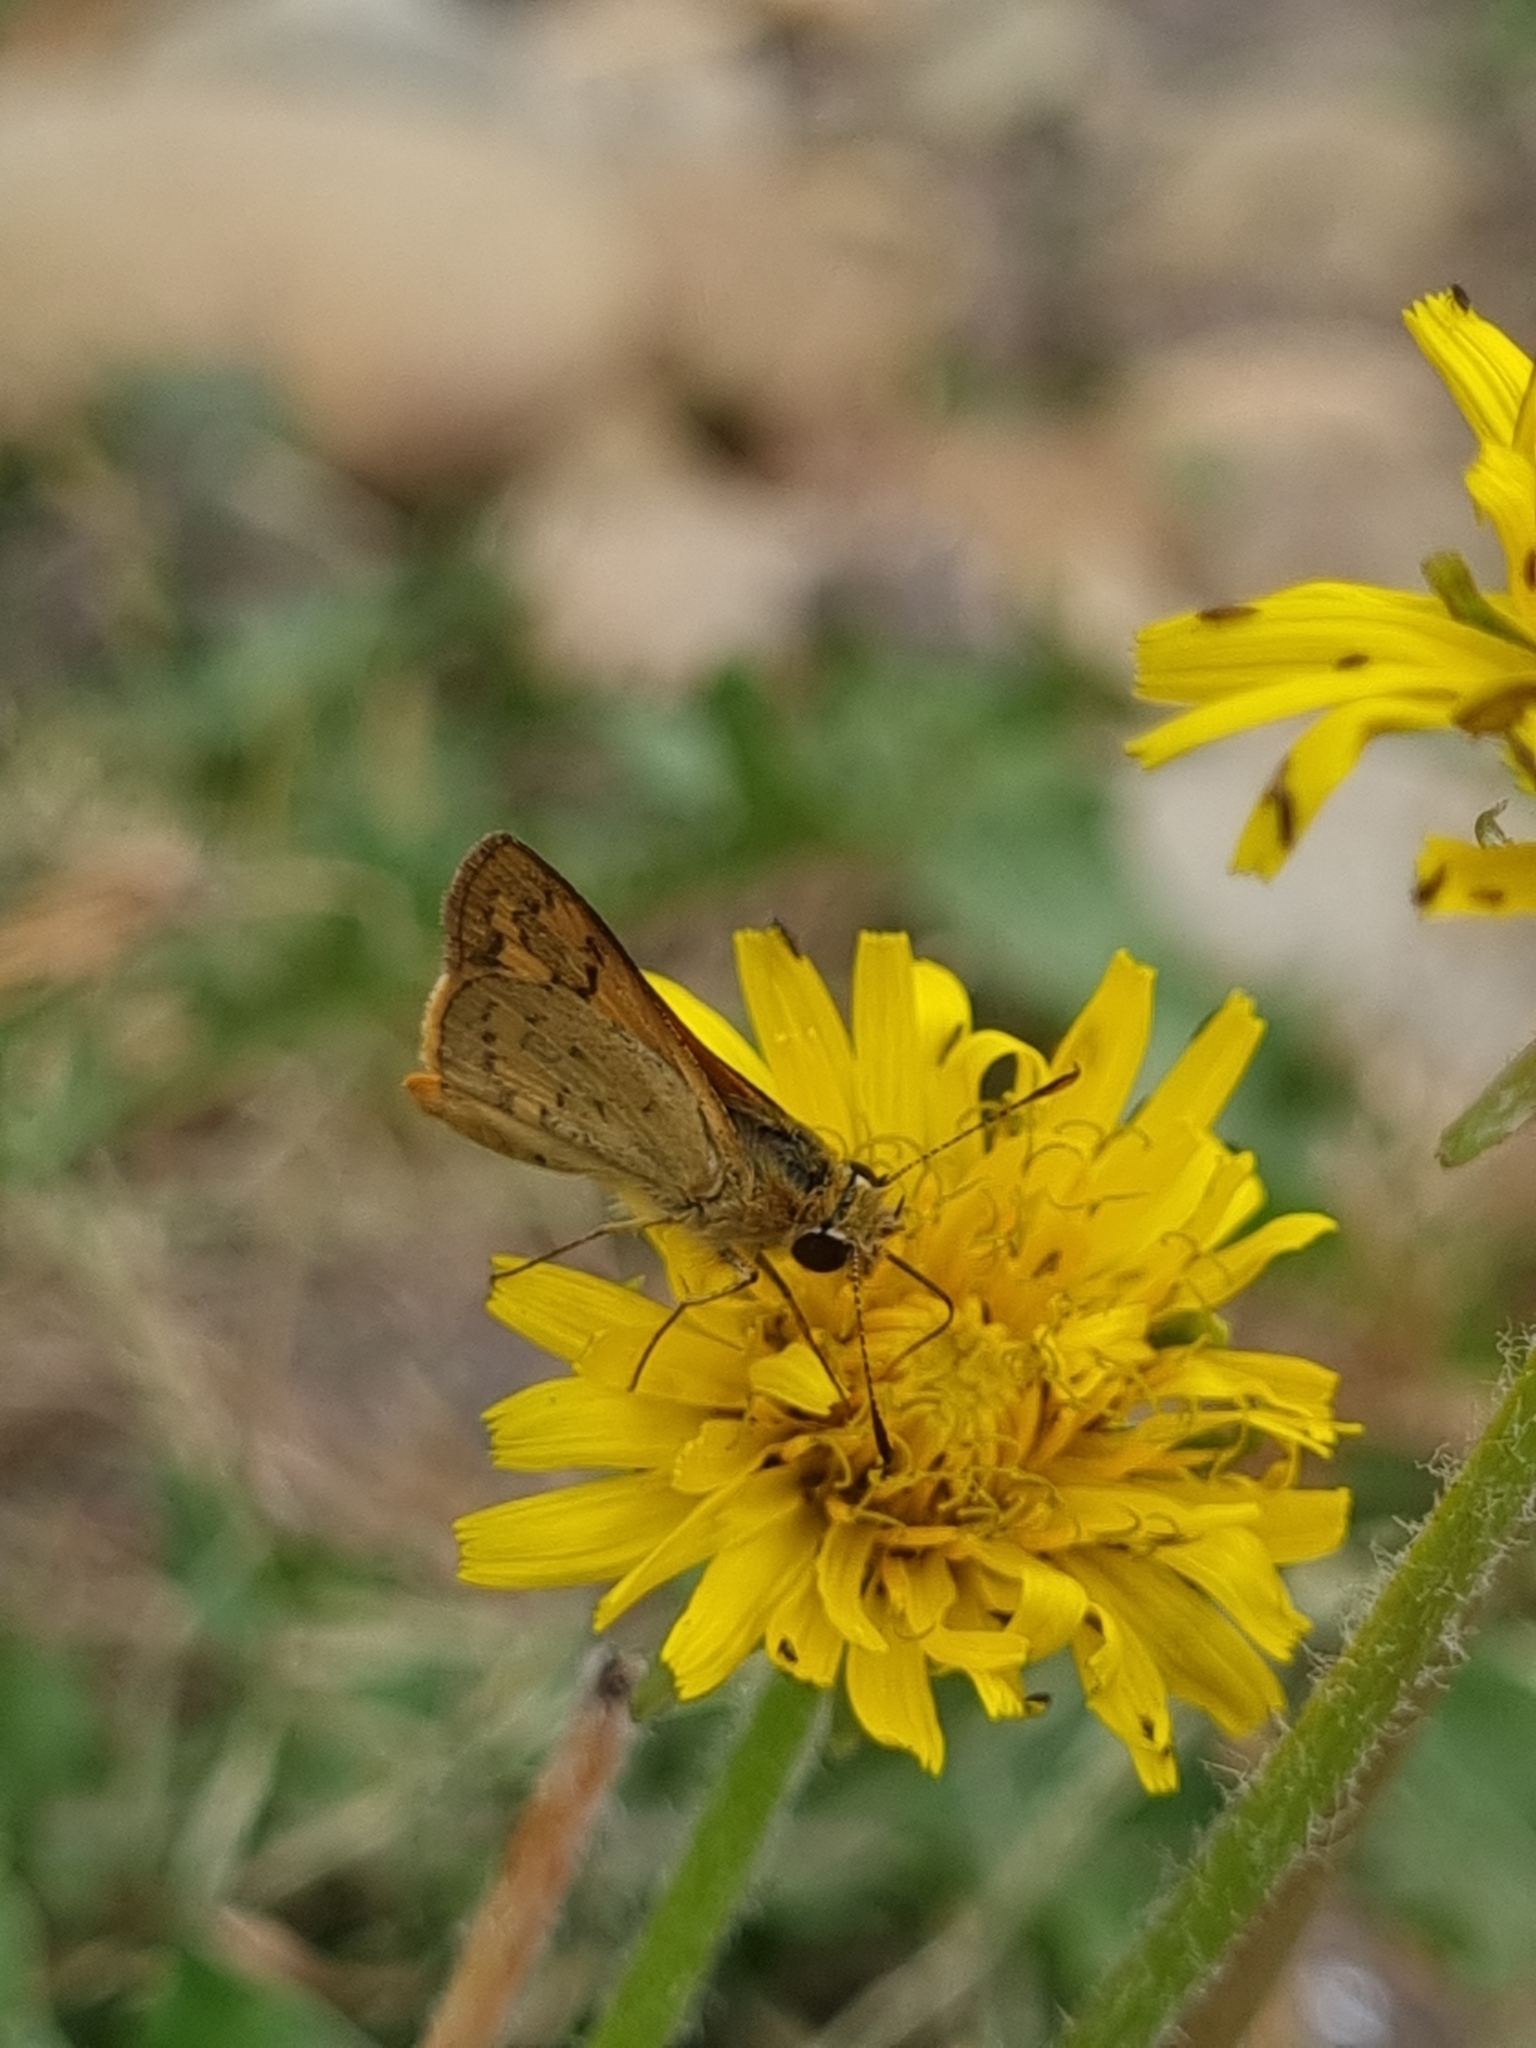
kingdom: Animalia
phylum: Arthropoda
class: Insecta
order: Lepidoptera
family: Hesperiidae
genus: Ocybadistes
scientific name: Ocybadistes walkeri
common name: Yellow-banded dart
